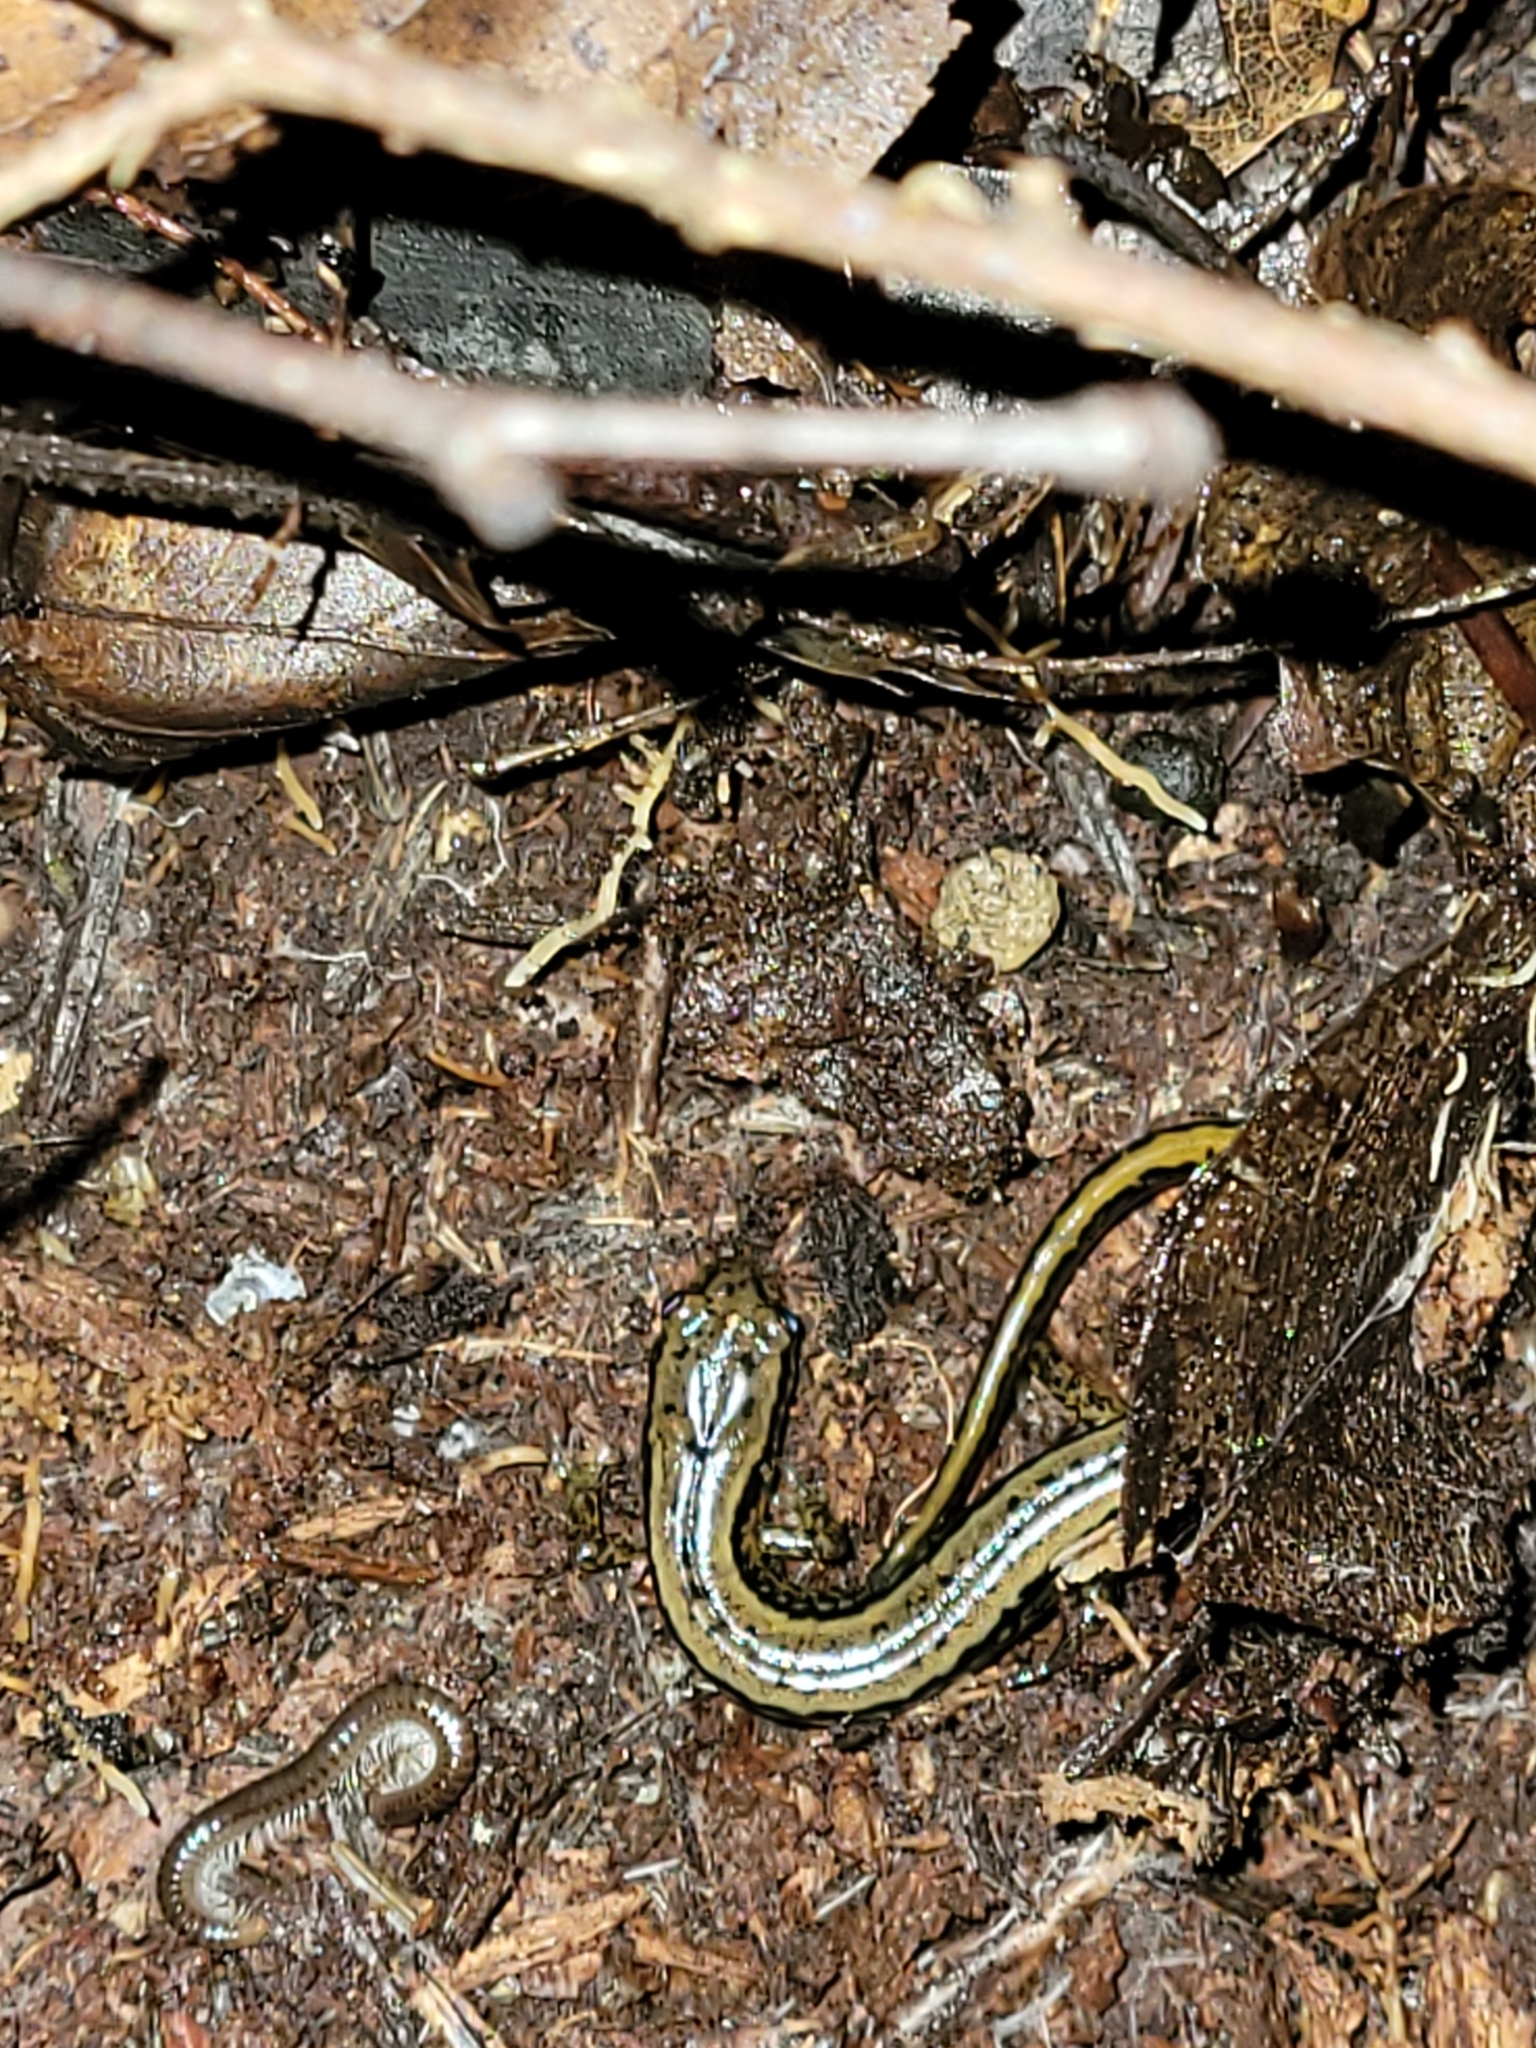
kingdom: Animalia
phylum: Chordata
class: Amphibia
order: Caudata
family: Plethodontidae
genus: Eurycea
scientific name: Eurycea bislineata
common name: Northern two-lined salamander
